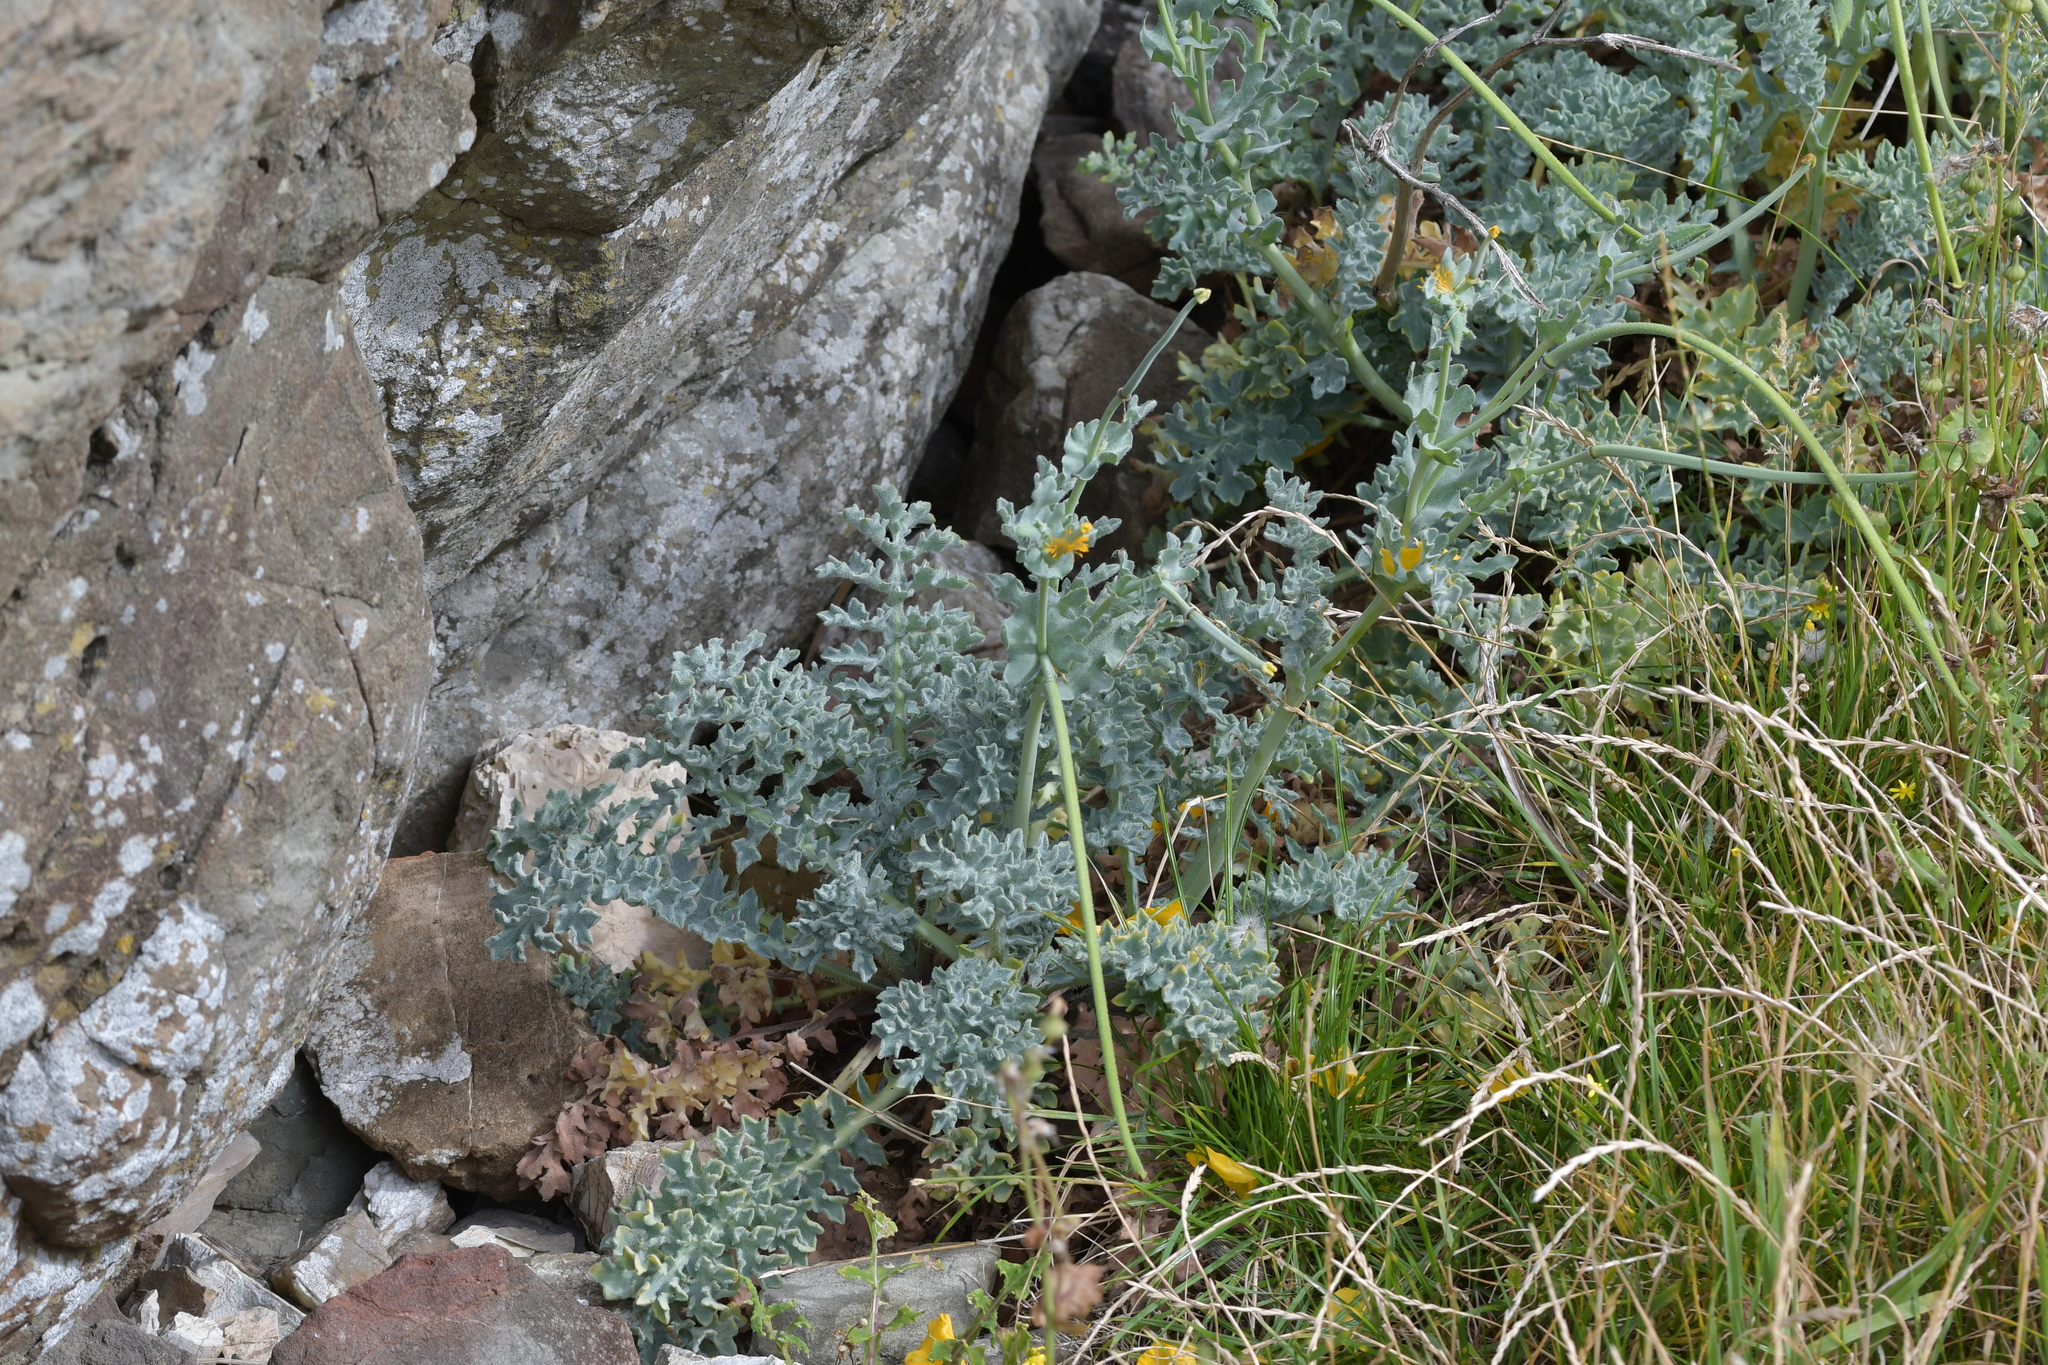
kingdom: Plantae
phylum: Tracheophyta
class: Magnoliopsida
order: Ranunculales
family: Papaveraceae
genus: Glaucium
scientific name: Glaucium flavum
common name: Yellow horned-poppy
